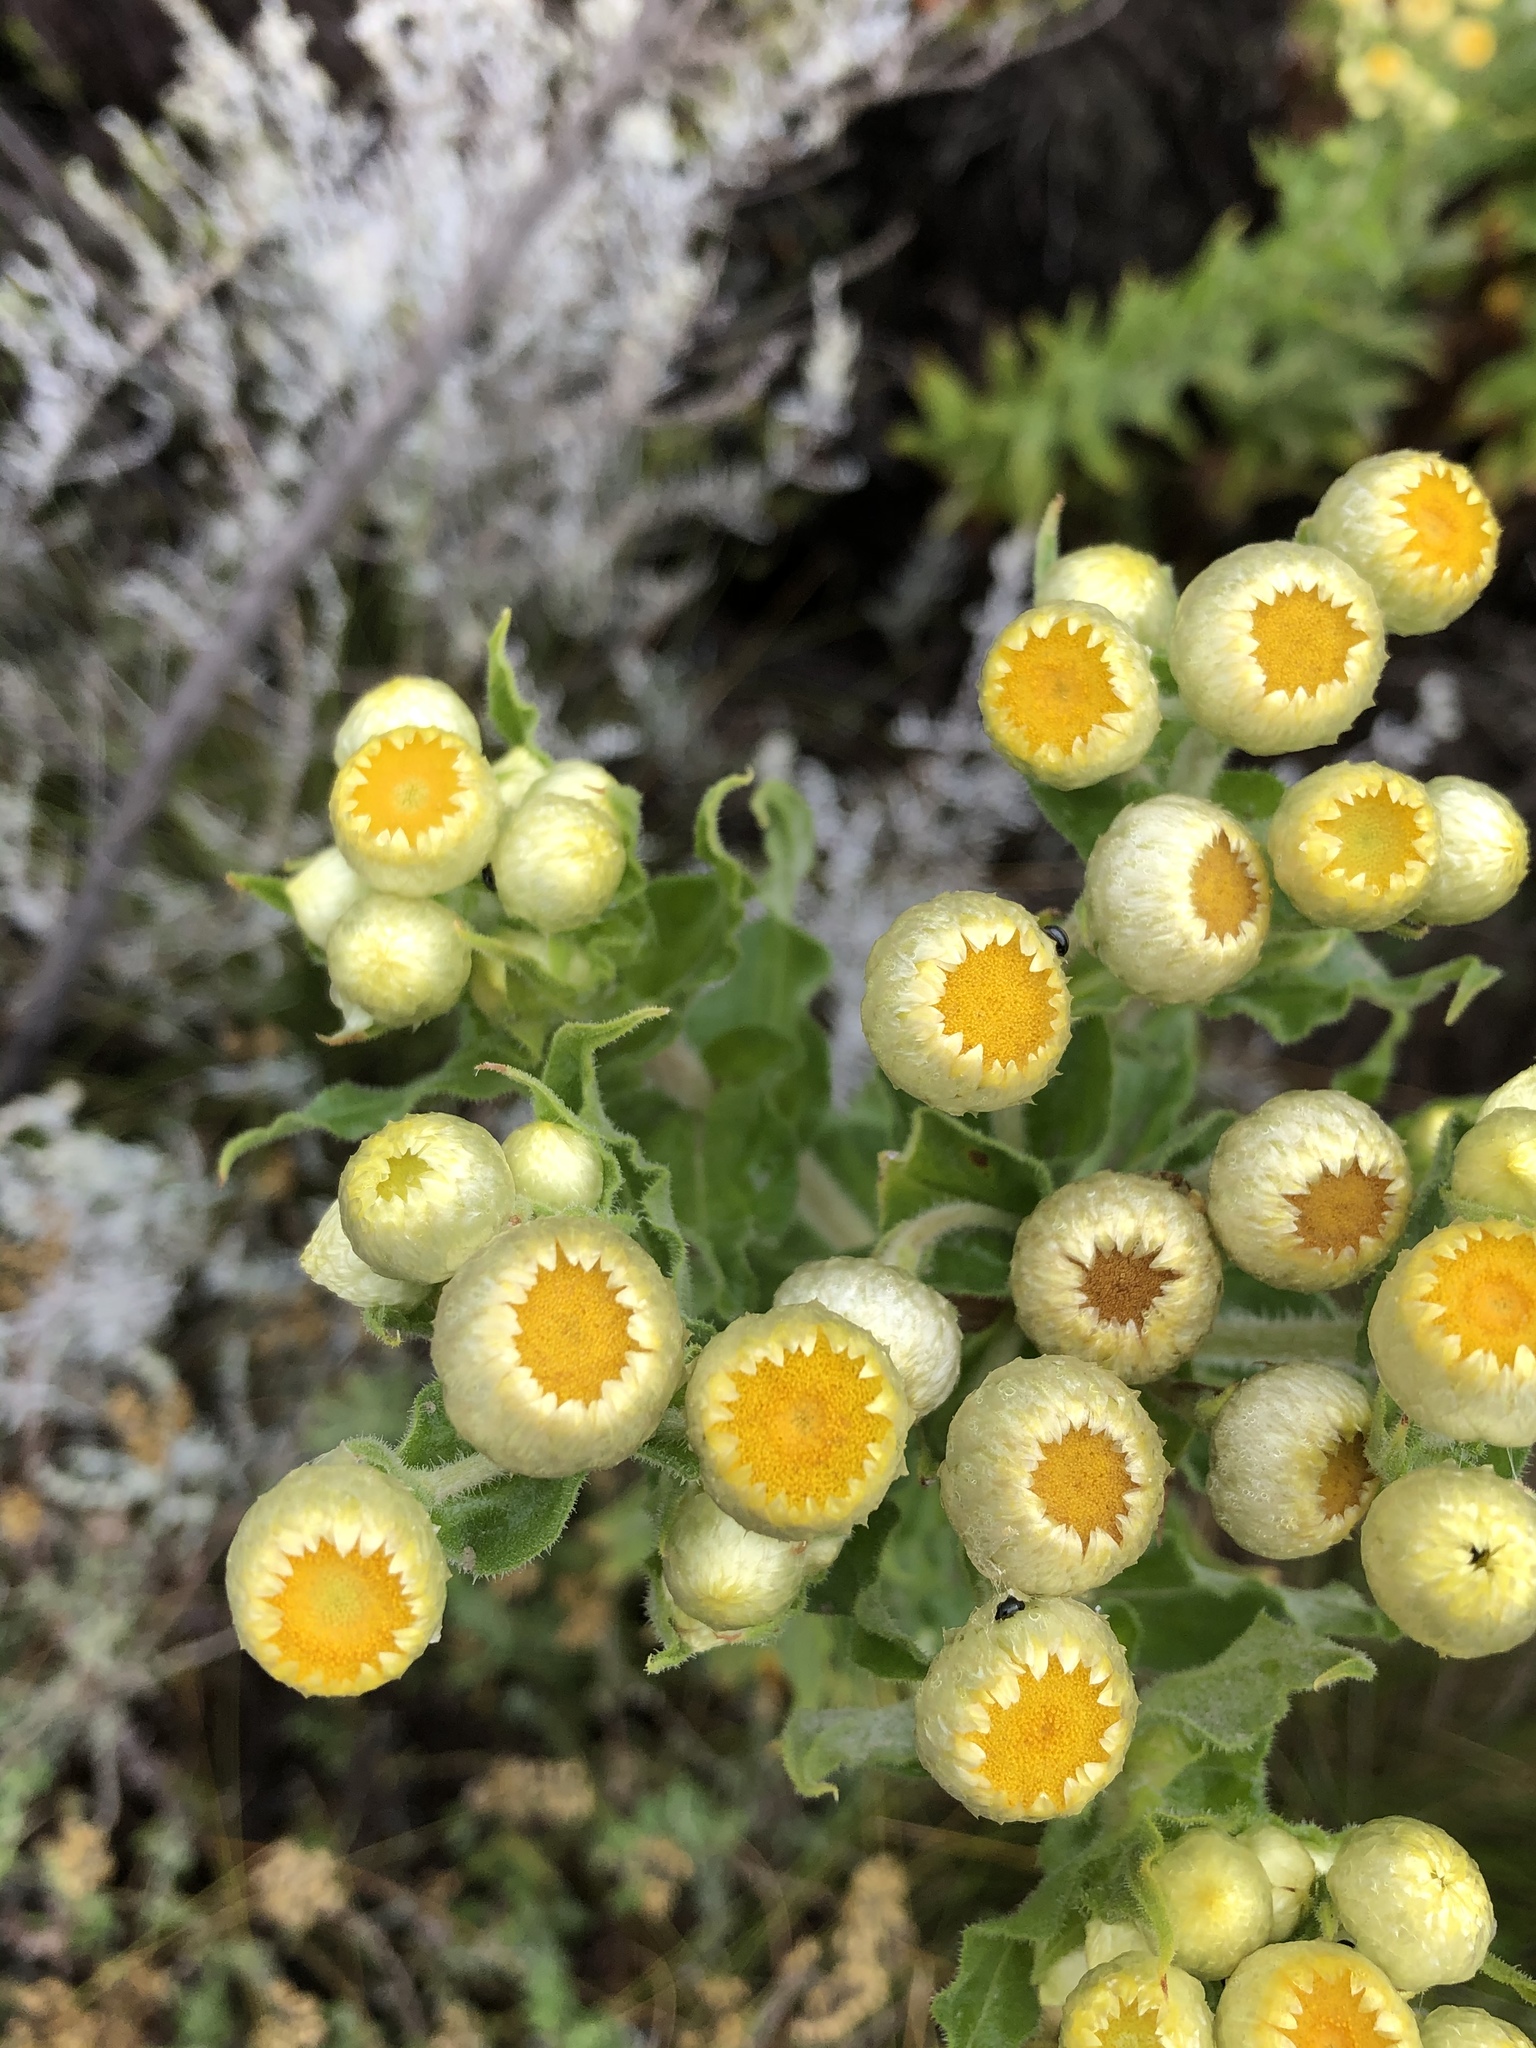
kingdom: Plantae
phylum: Tracheophyta
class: Magnoliopsida
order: Asterales
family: Asteraceae
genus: Helichrysum
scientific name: Helichrysum foetidum
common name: Stinking everlasting
